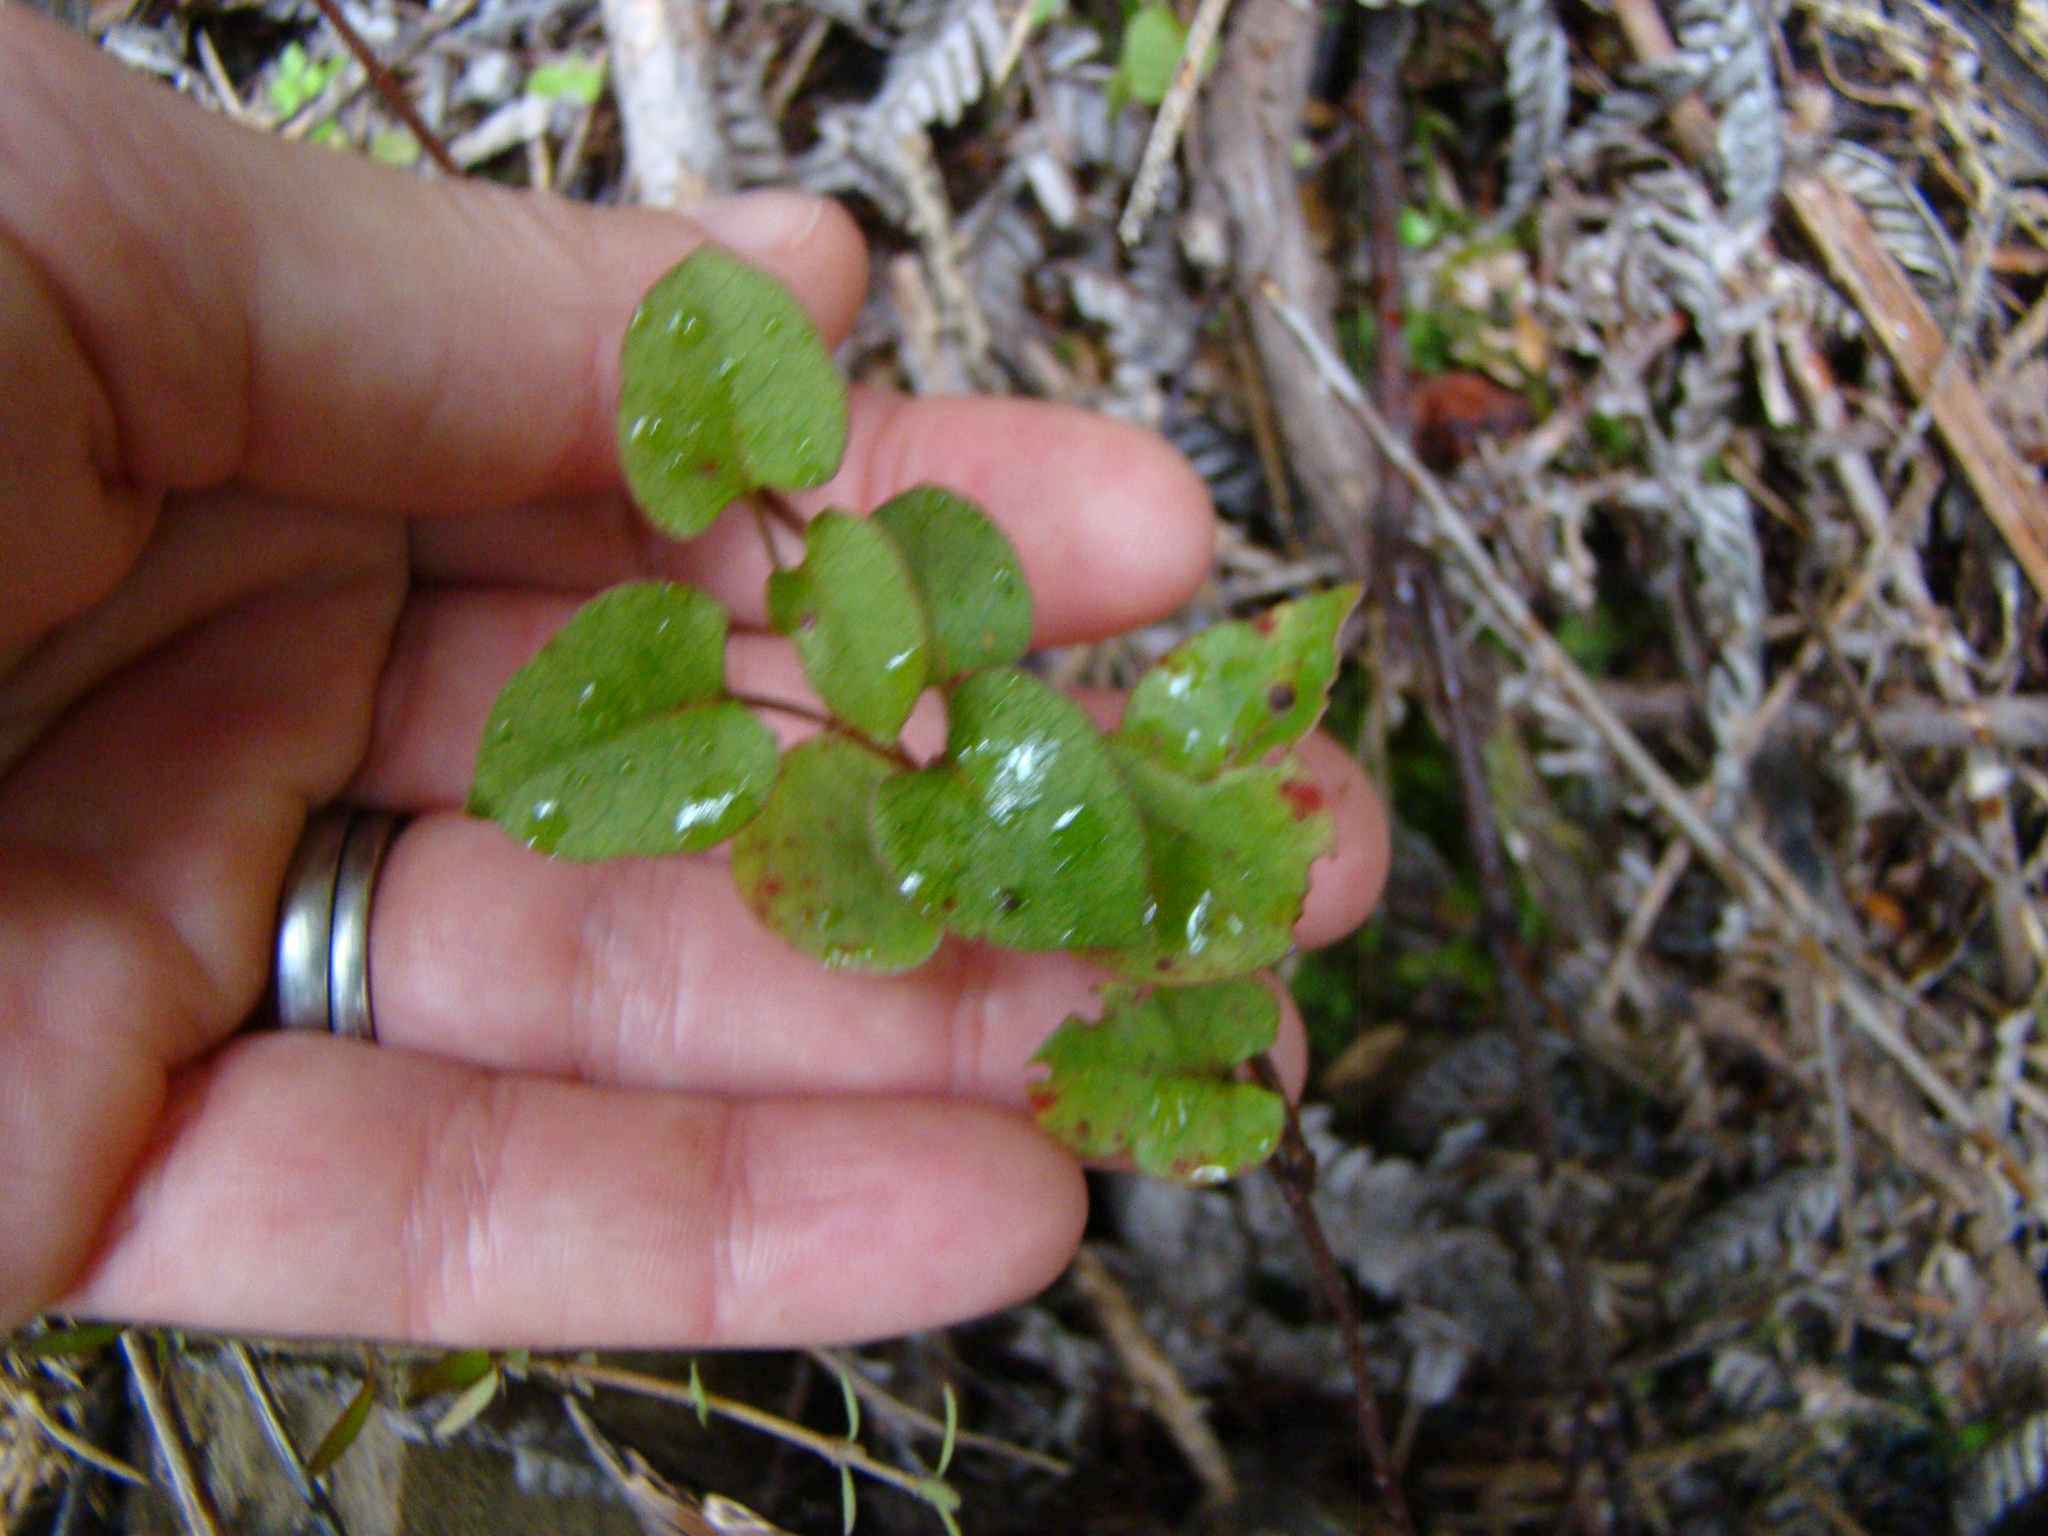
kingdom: Plantae
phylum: Tracheophyta
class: Magnoliopsida
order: Solanales
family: Convolvulaceae
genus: Calystegia
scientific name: Calystegia tuguriorum
